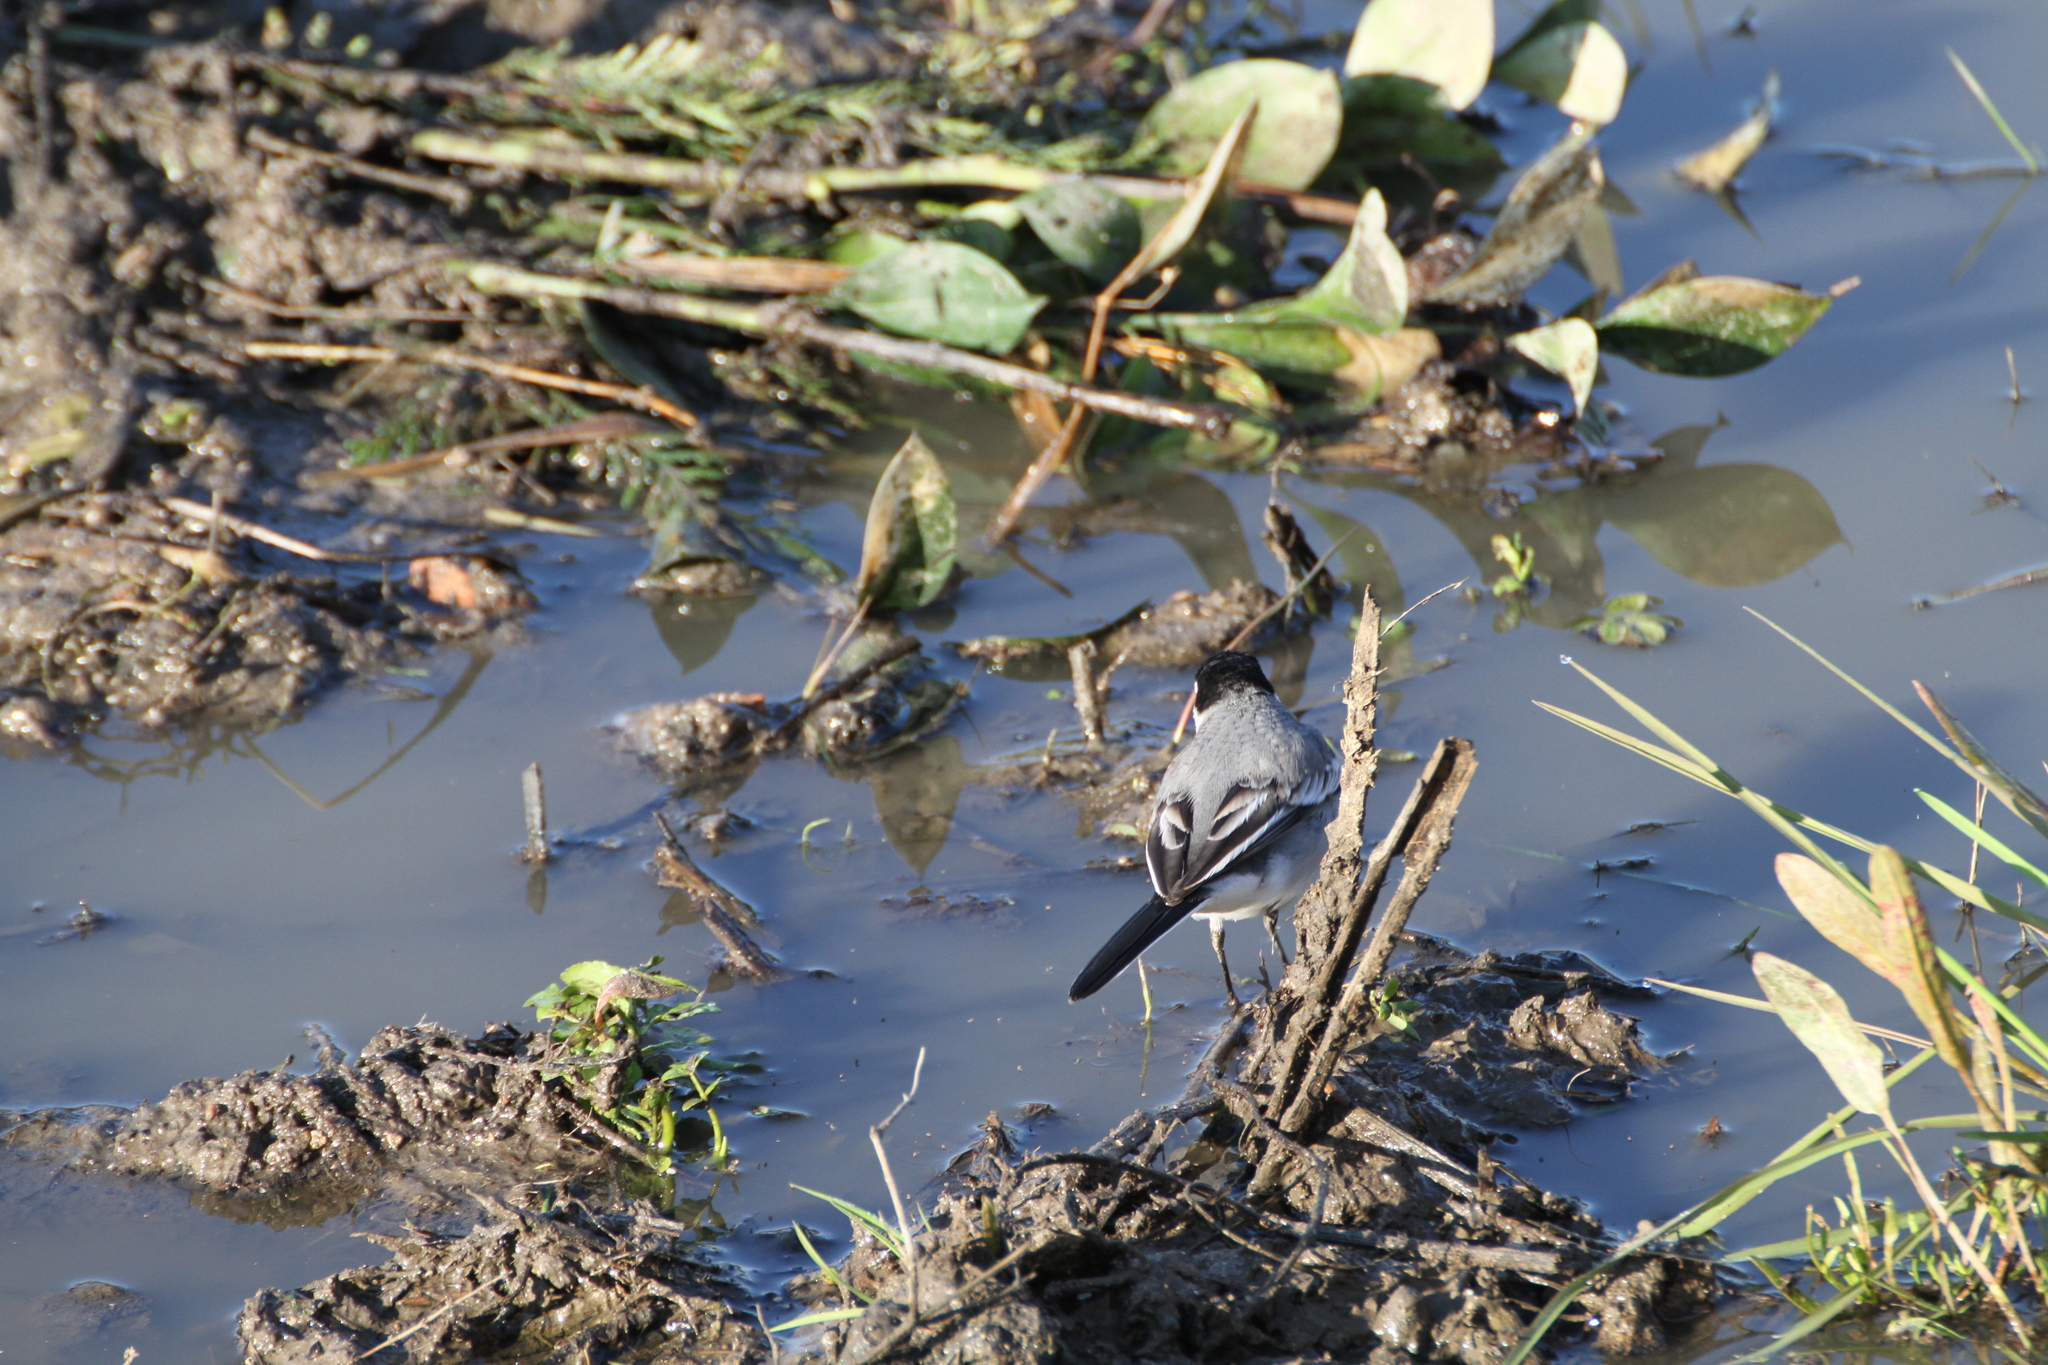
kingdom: Animalia
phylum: Chordata
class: Aves
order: Passeriformes
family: Motacillidae
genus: Motacilla
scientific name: Motacilla alba
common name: White wagtail
